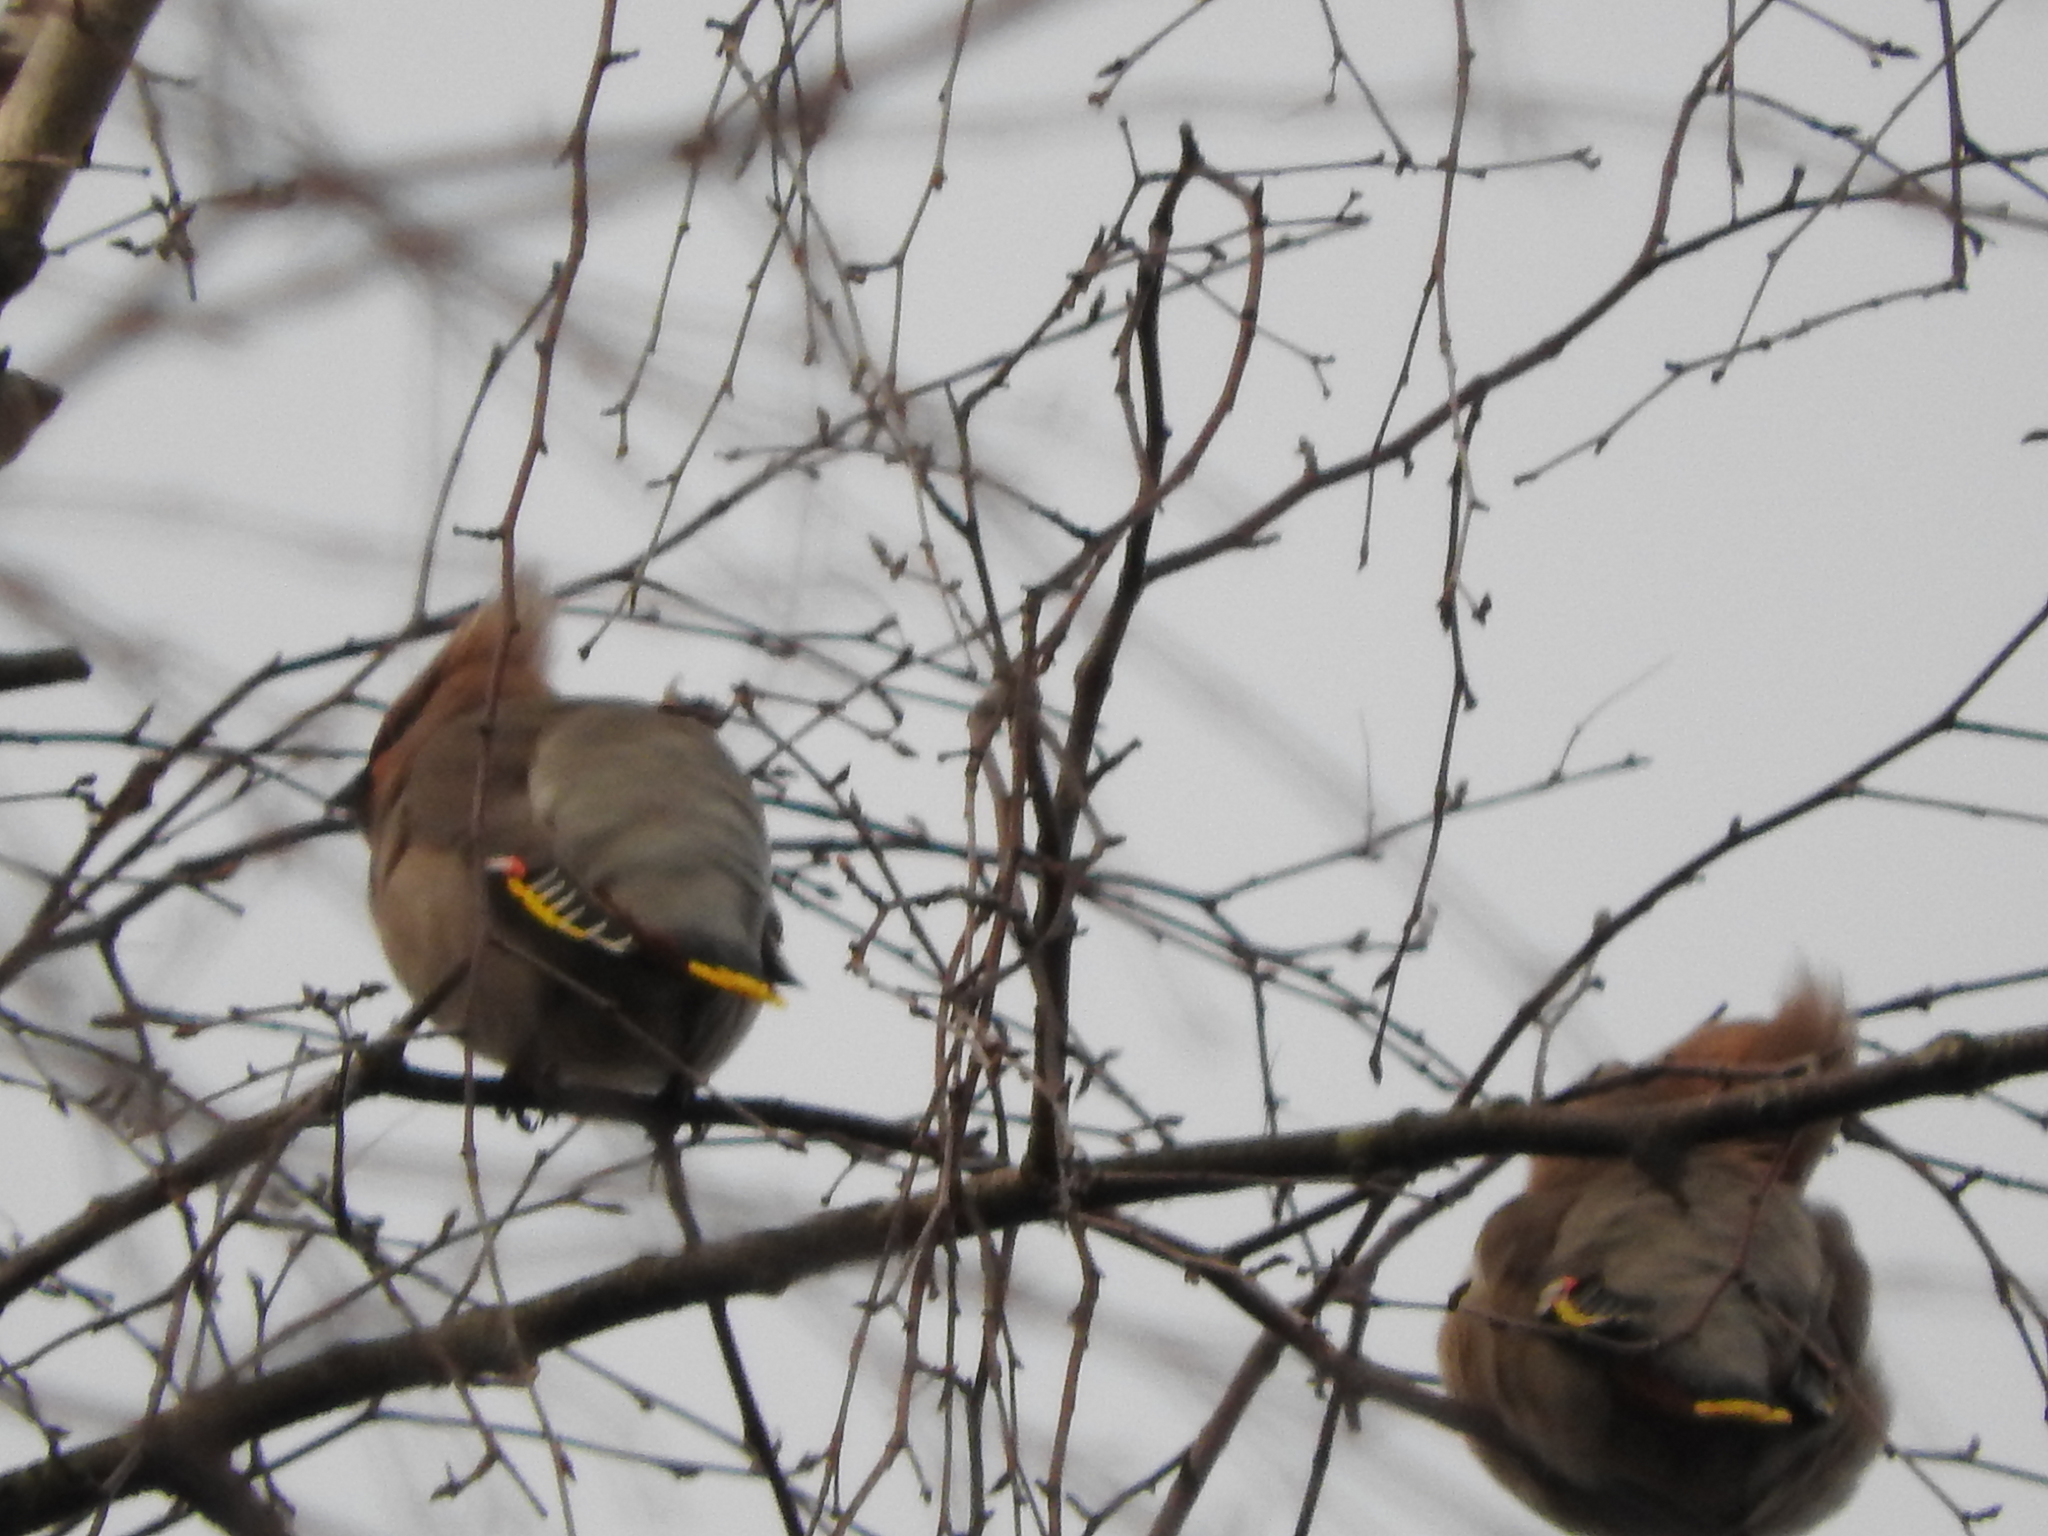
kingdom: Animalia
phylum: Chordata
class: Aves
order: Passeriformes
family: Bombycillidae
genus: Bombycilla
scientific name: Bombycilla garrulus
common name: Bohemian waxwing
